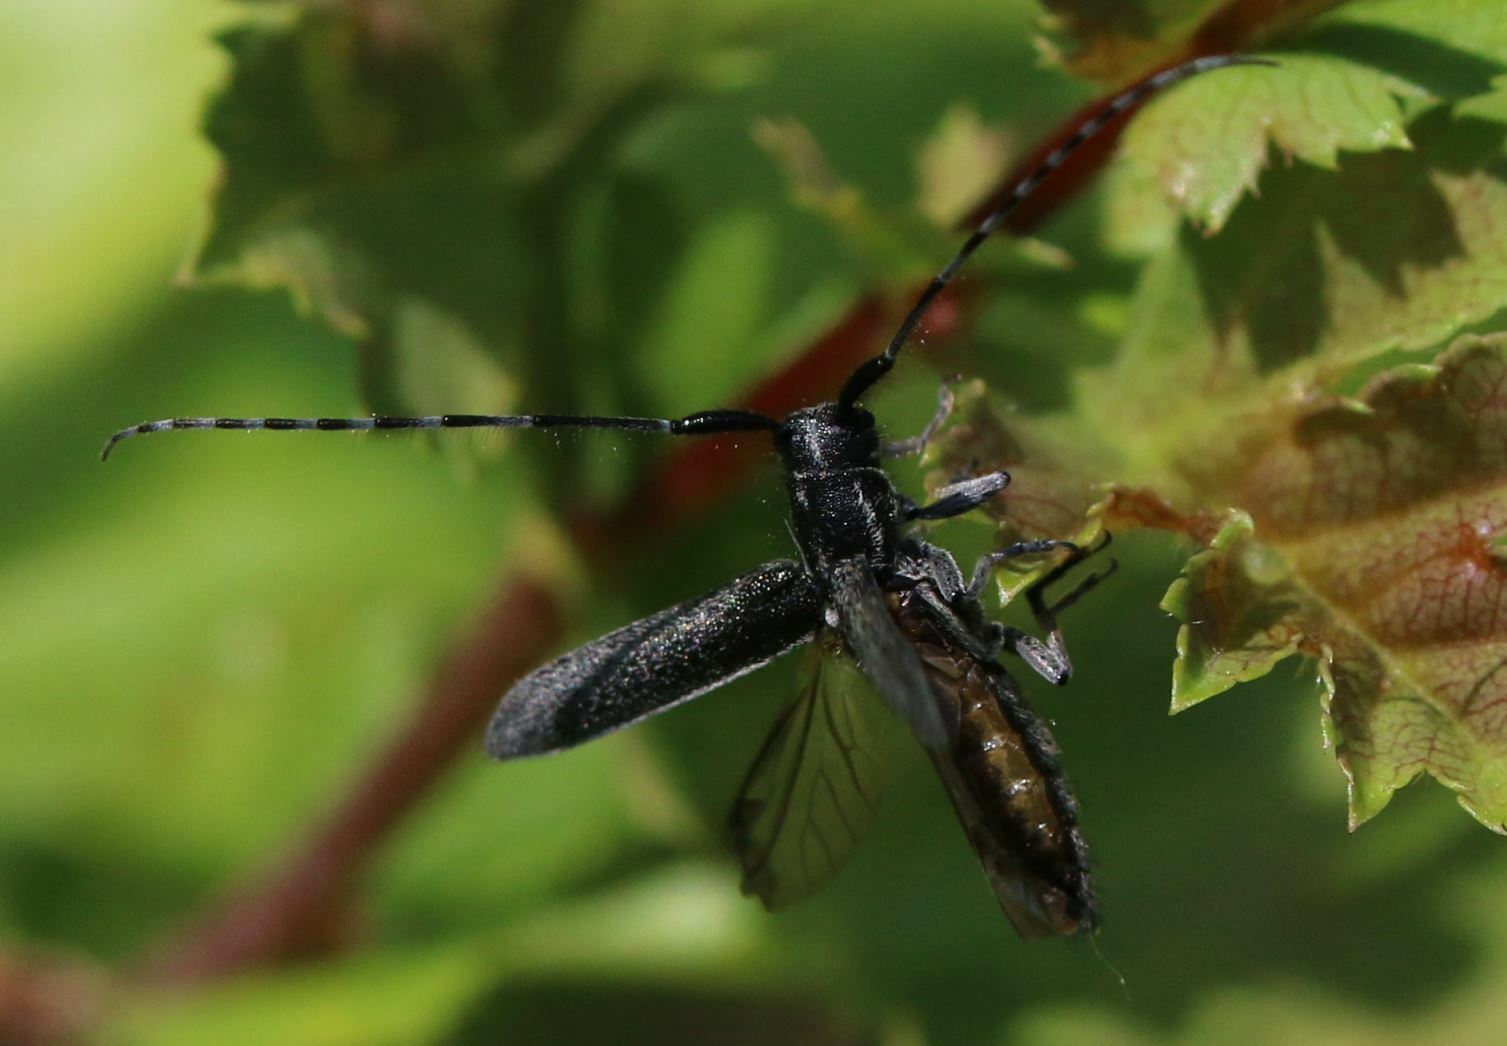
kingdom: Animalia
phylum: Arthropoda
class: Insecta
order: Coleoptera
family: Cerambycidae
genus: Agapanthia
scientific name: Agapanthia cardui
